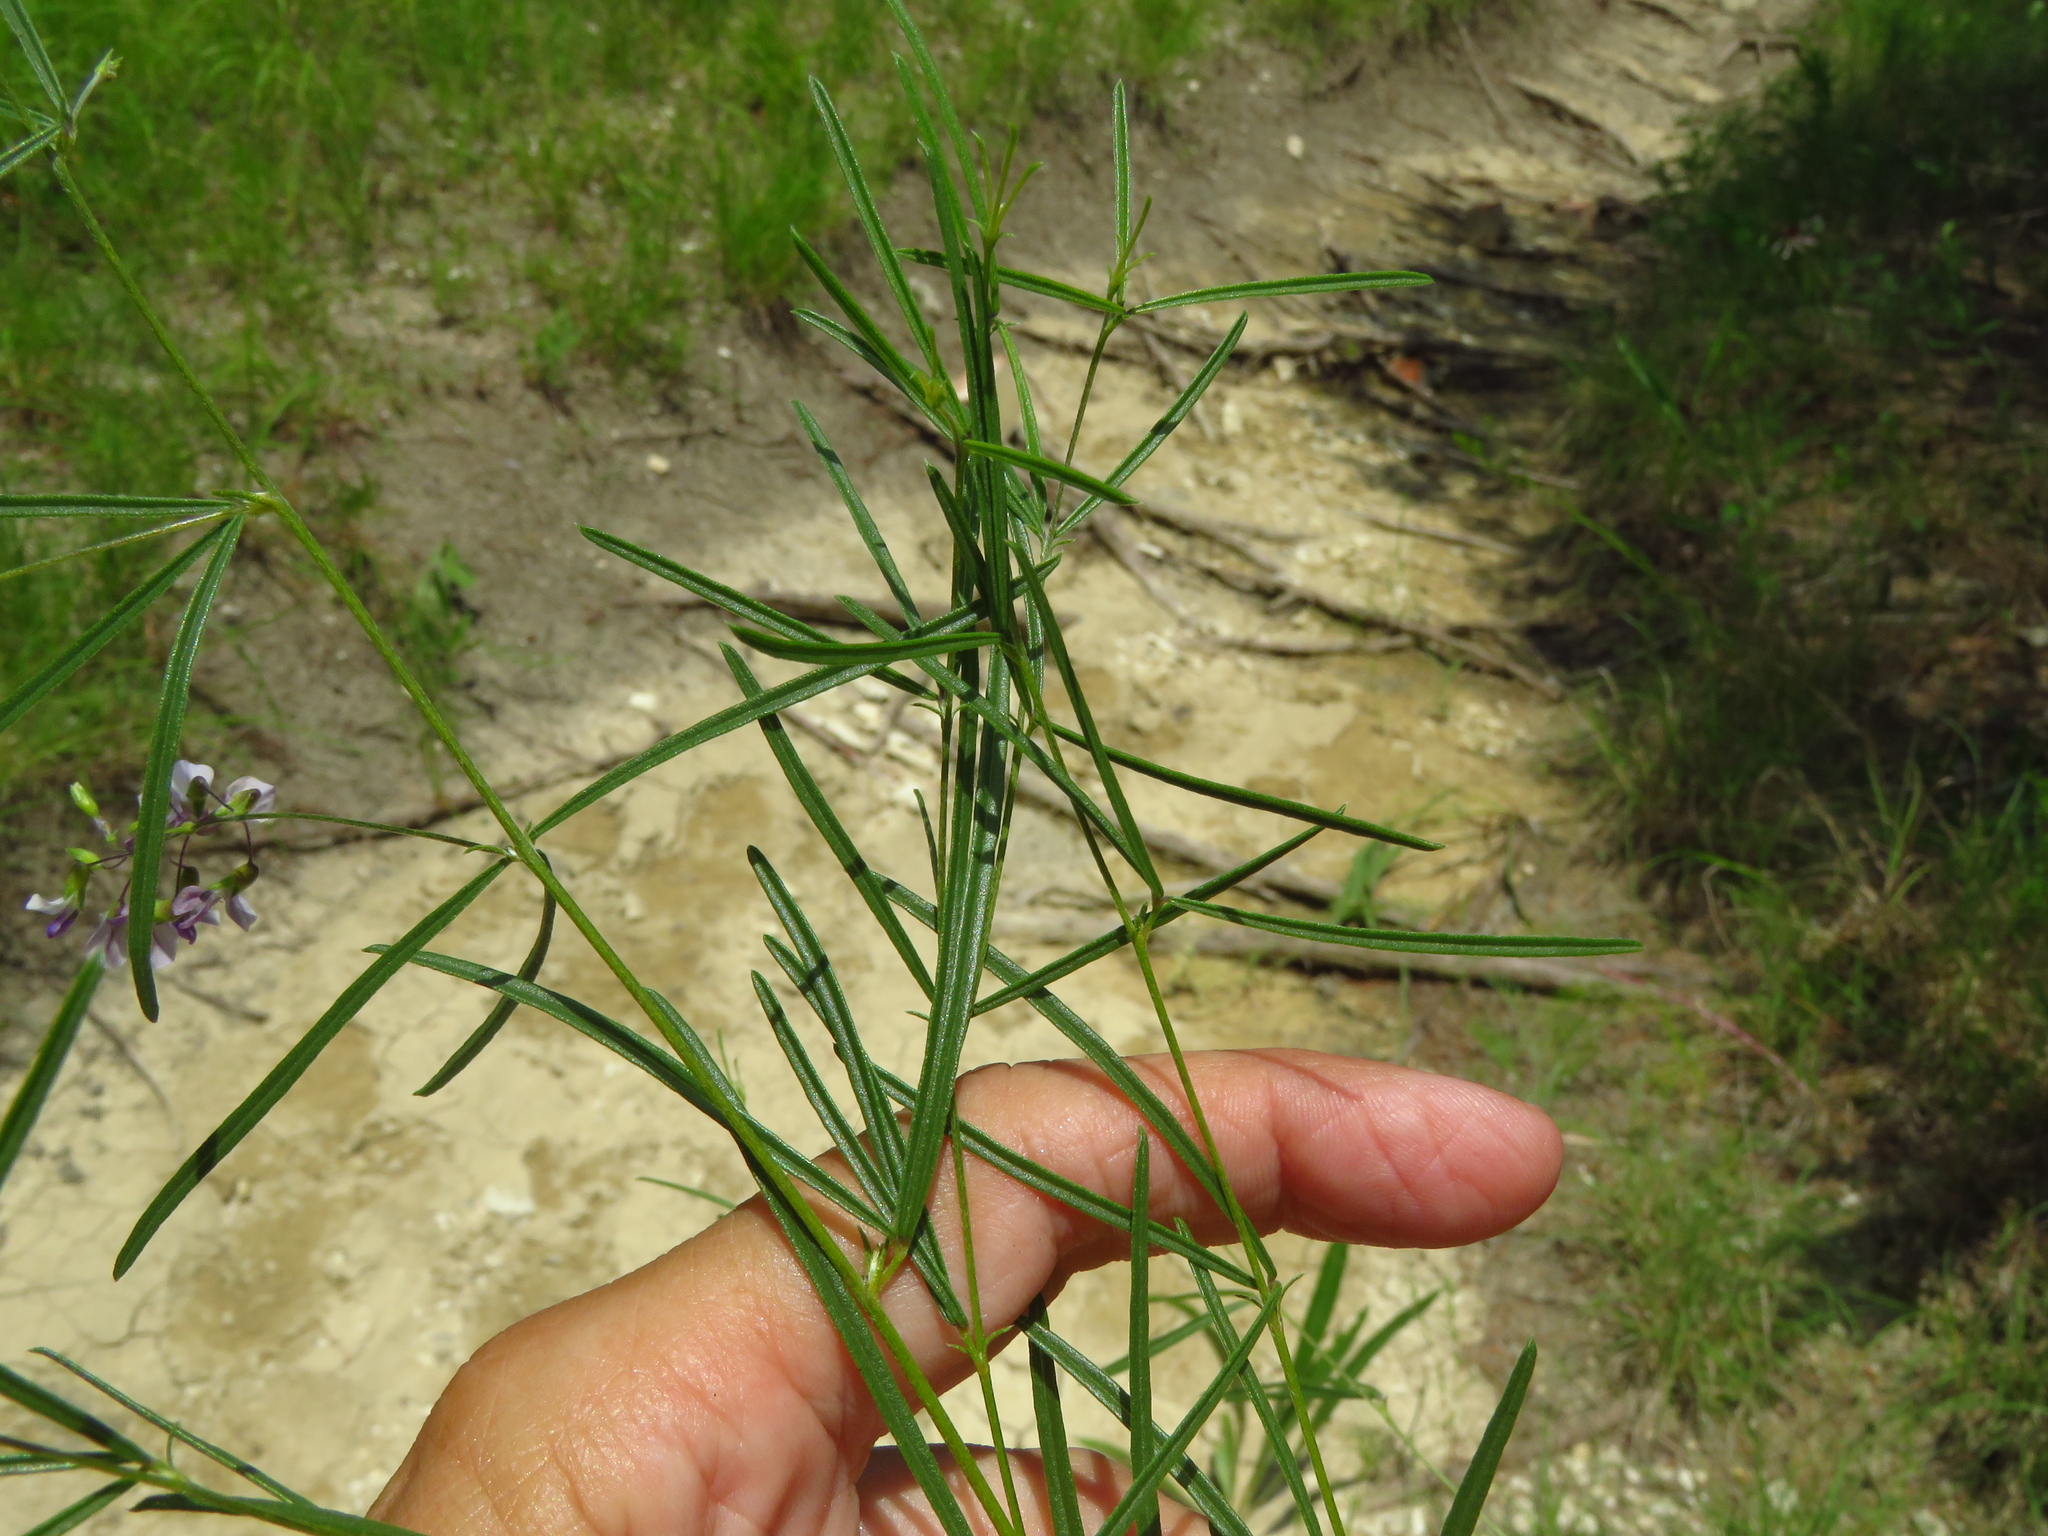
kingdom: Plantae
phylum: Tracheophyta
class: Magnoliopsida
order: Fabales
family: Fabaceae
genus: Pediomelum
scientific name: Pediomelum linearifolium
